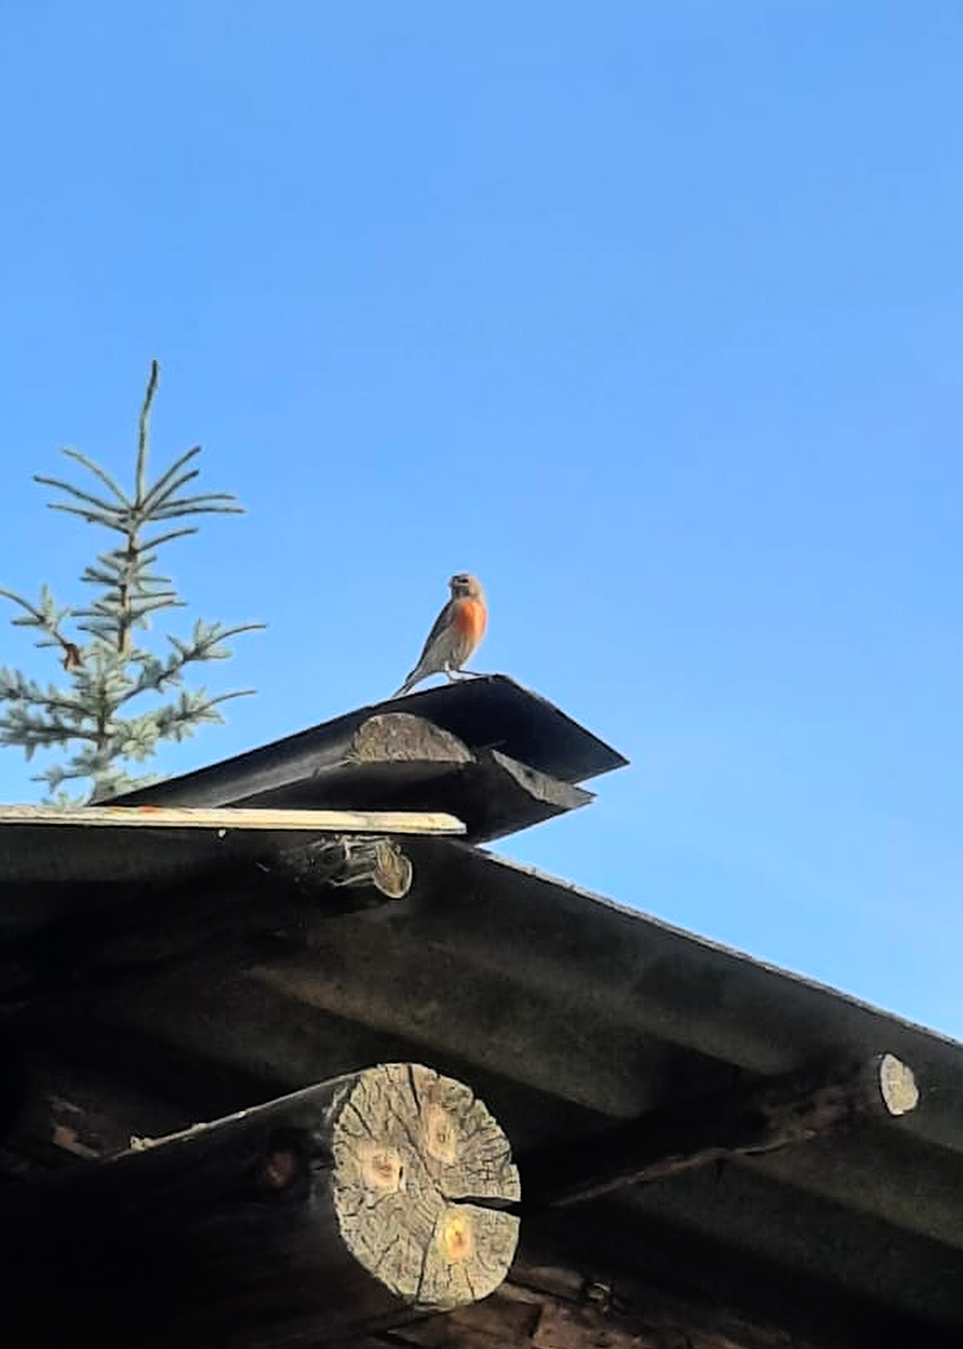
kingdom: Animalia
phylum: Chordata
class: Aves
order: Passeriformes
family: Fringillidae
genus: Linaria
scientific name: Linaria cannabina
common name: Common linnet
